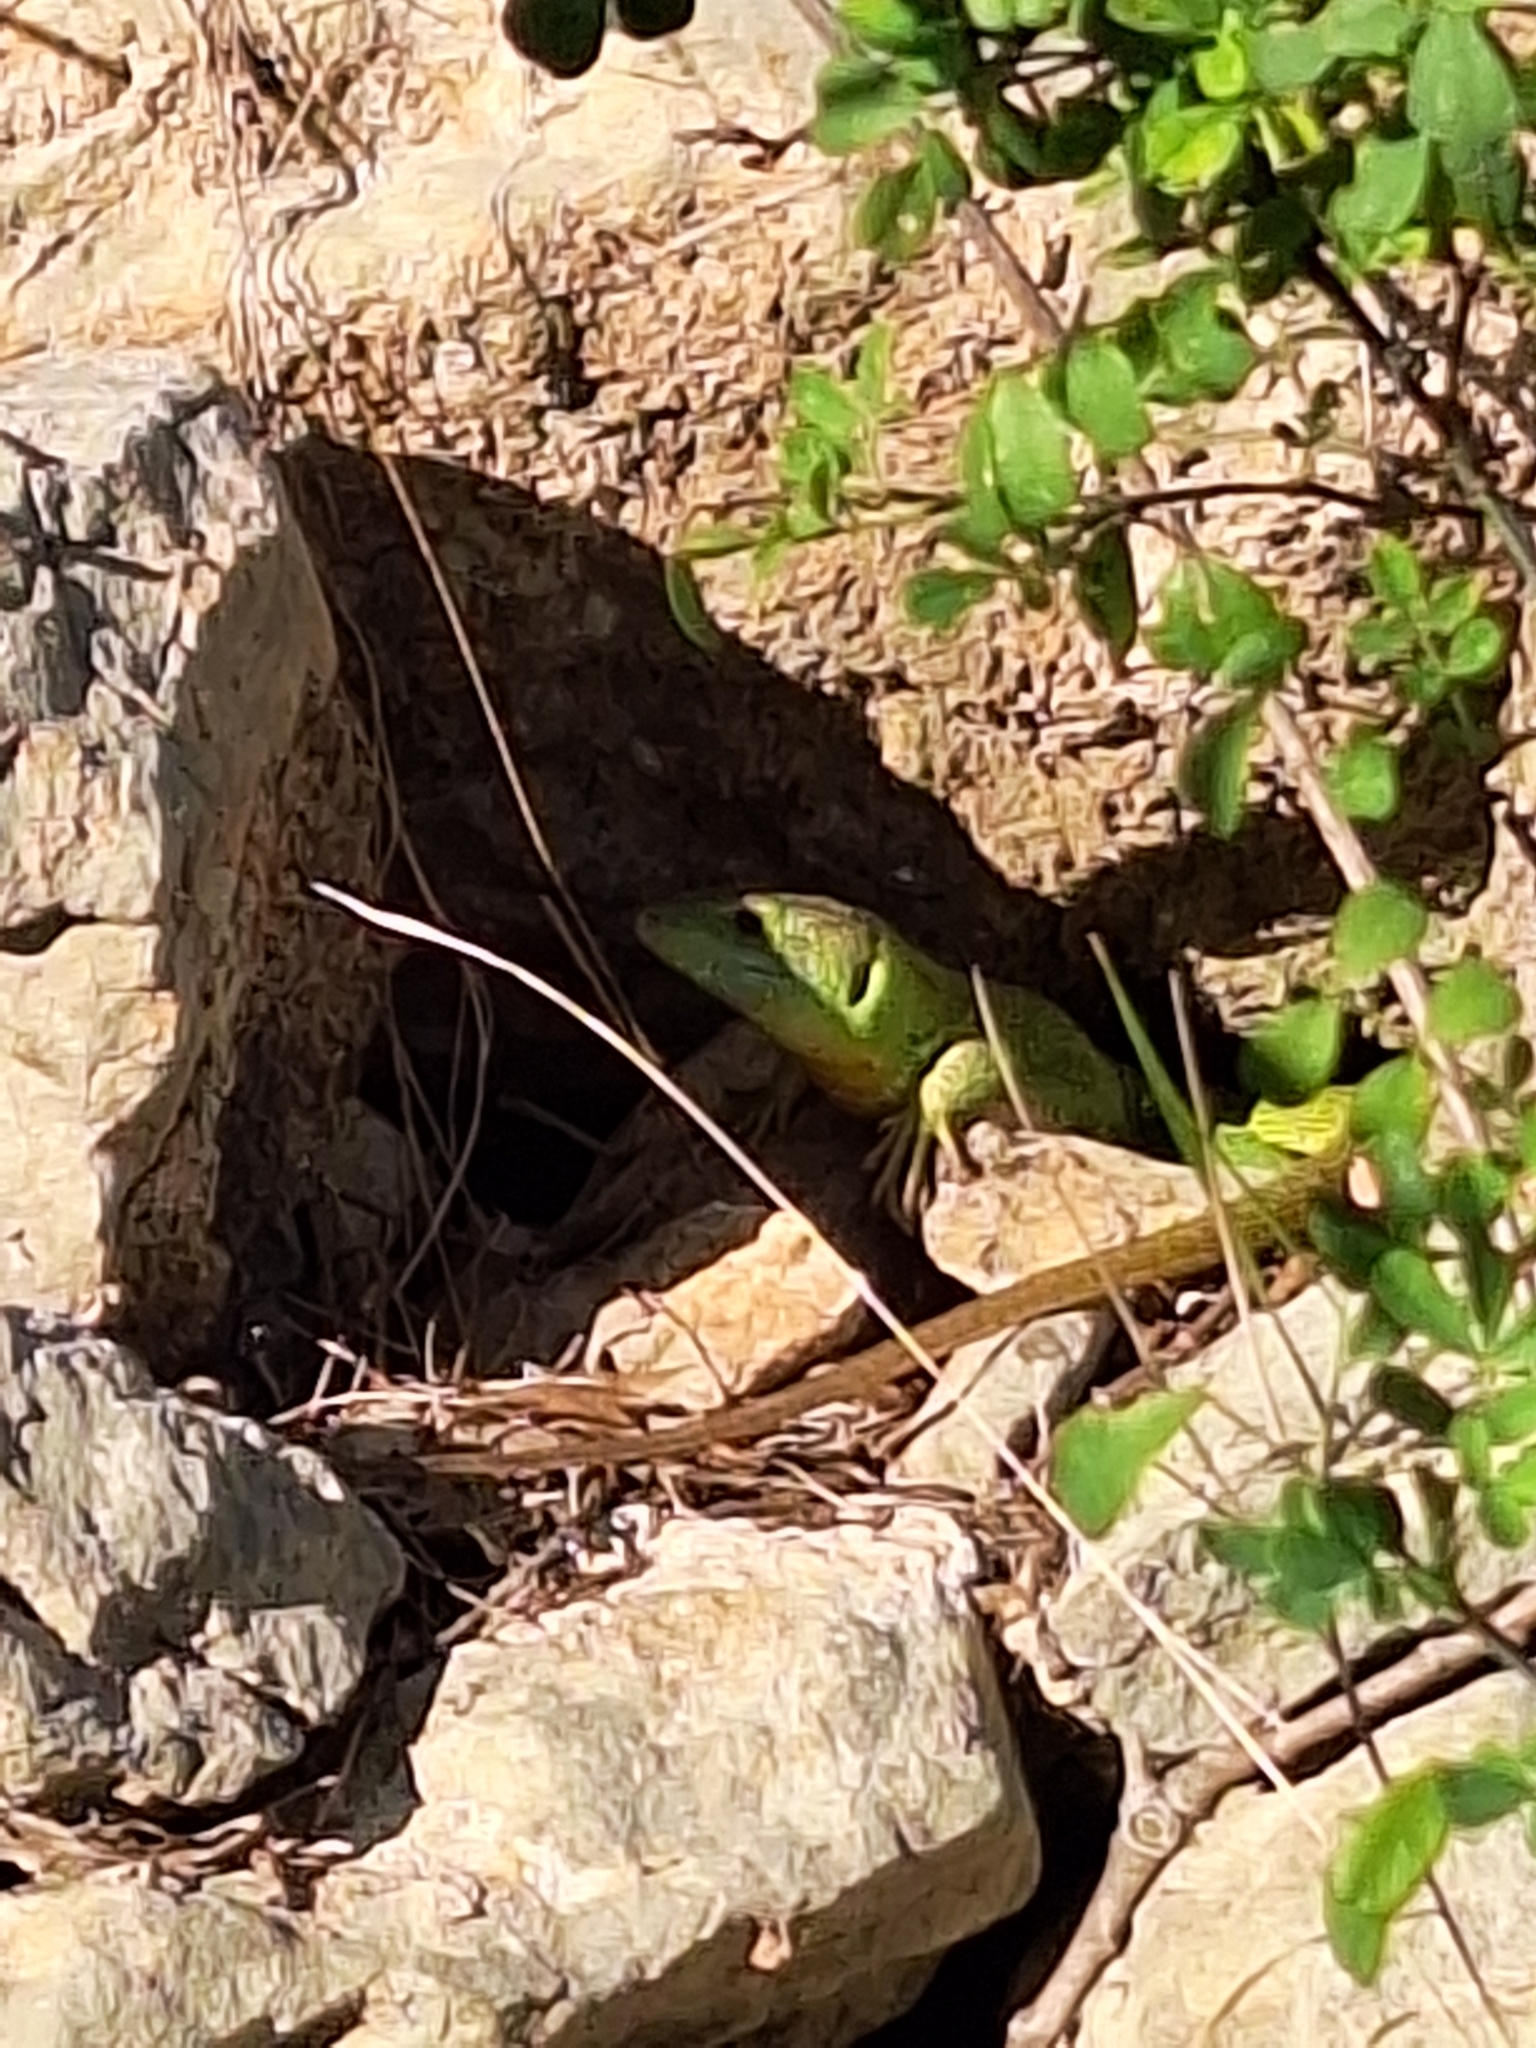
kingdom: Animalia
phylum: Chordata
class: Squamata
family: Lacertidae
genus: Lacerta
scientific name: Lacerta viridis
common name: European green lizard
